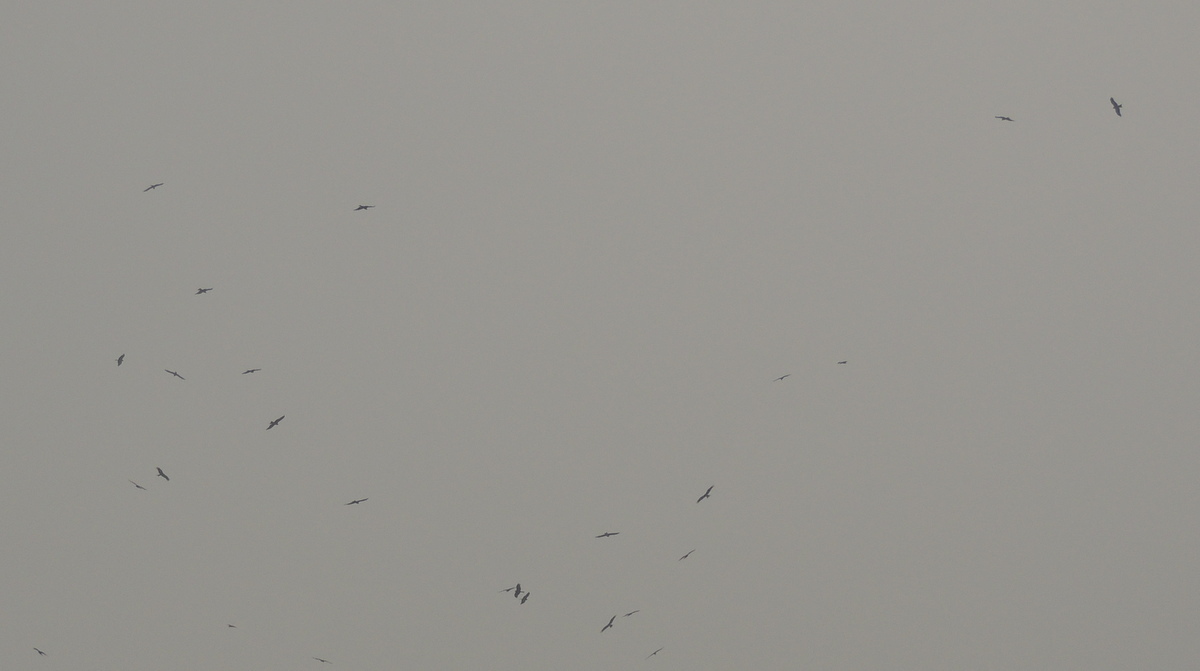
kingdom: Animalia
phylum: Chordata
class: Aves
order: Accipitriformes
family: Accipitridae
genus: Milvus
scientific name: Milvus migrans
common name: Black kite
